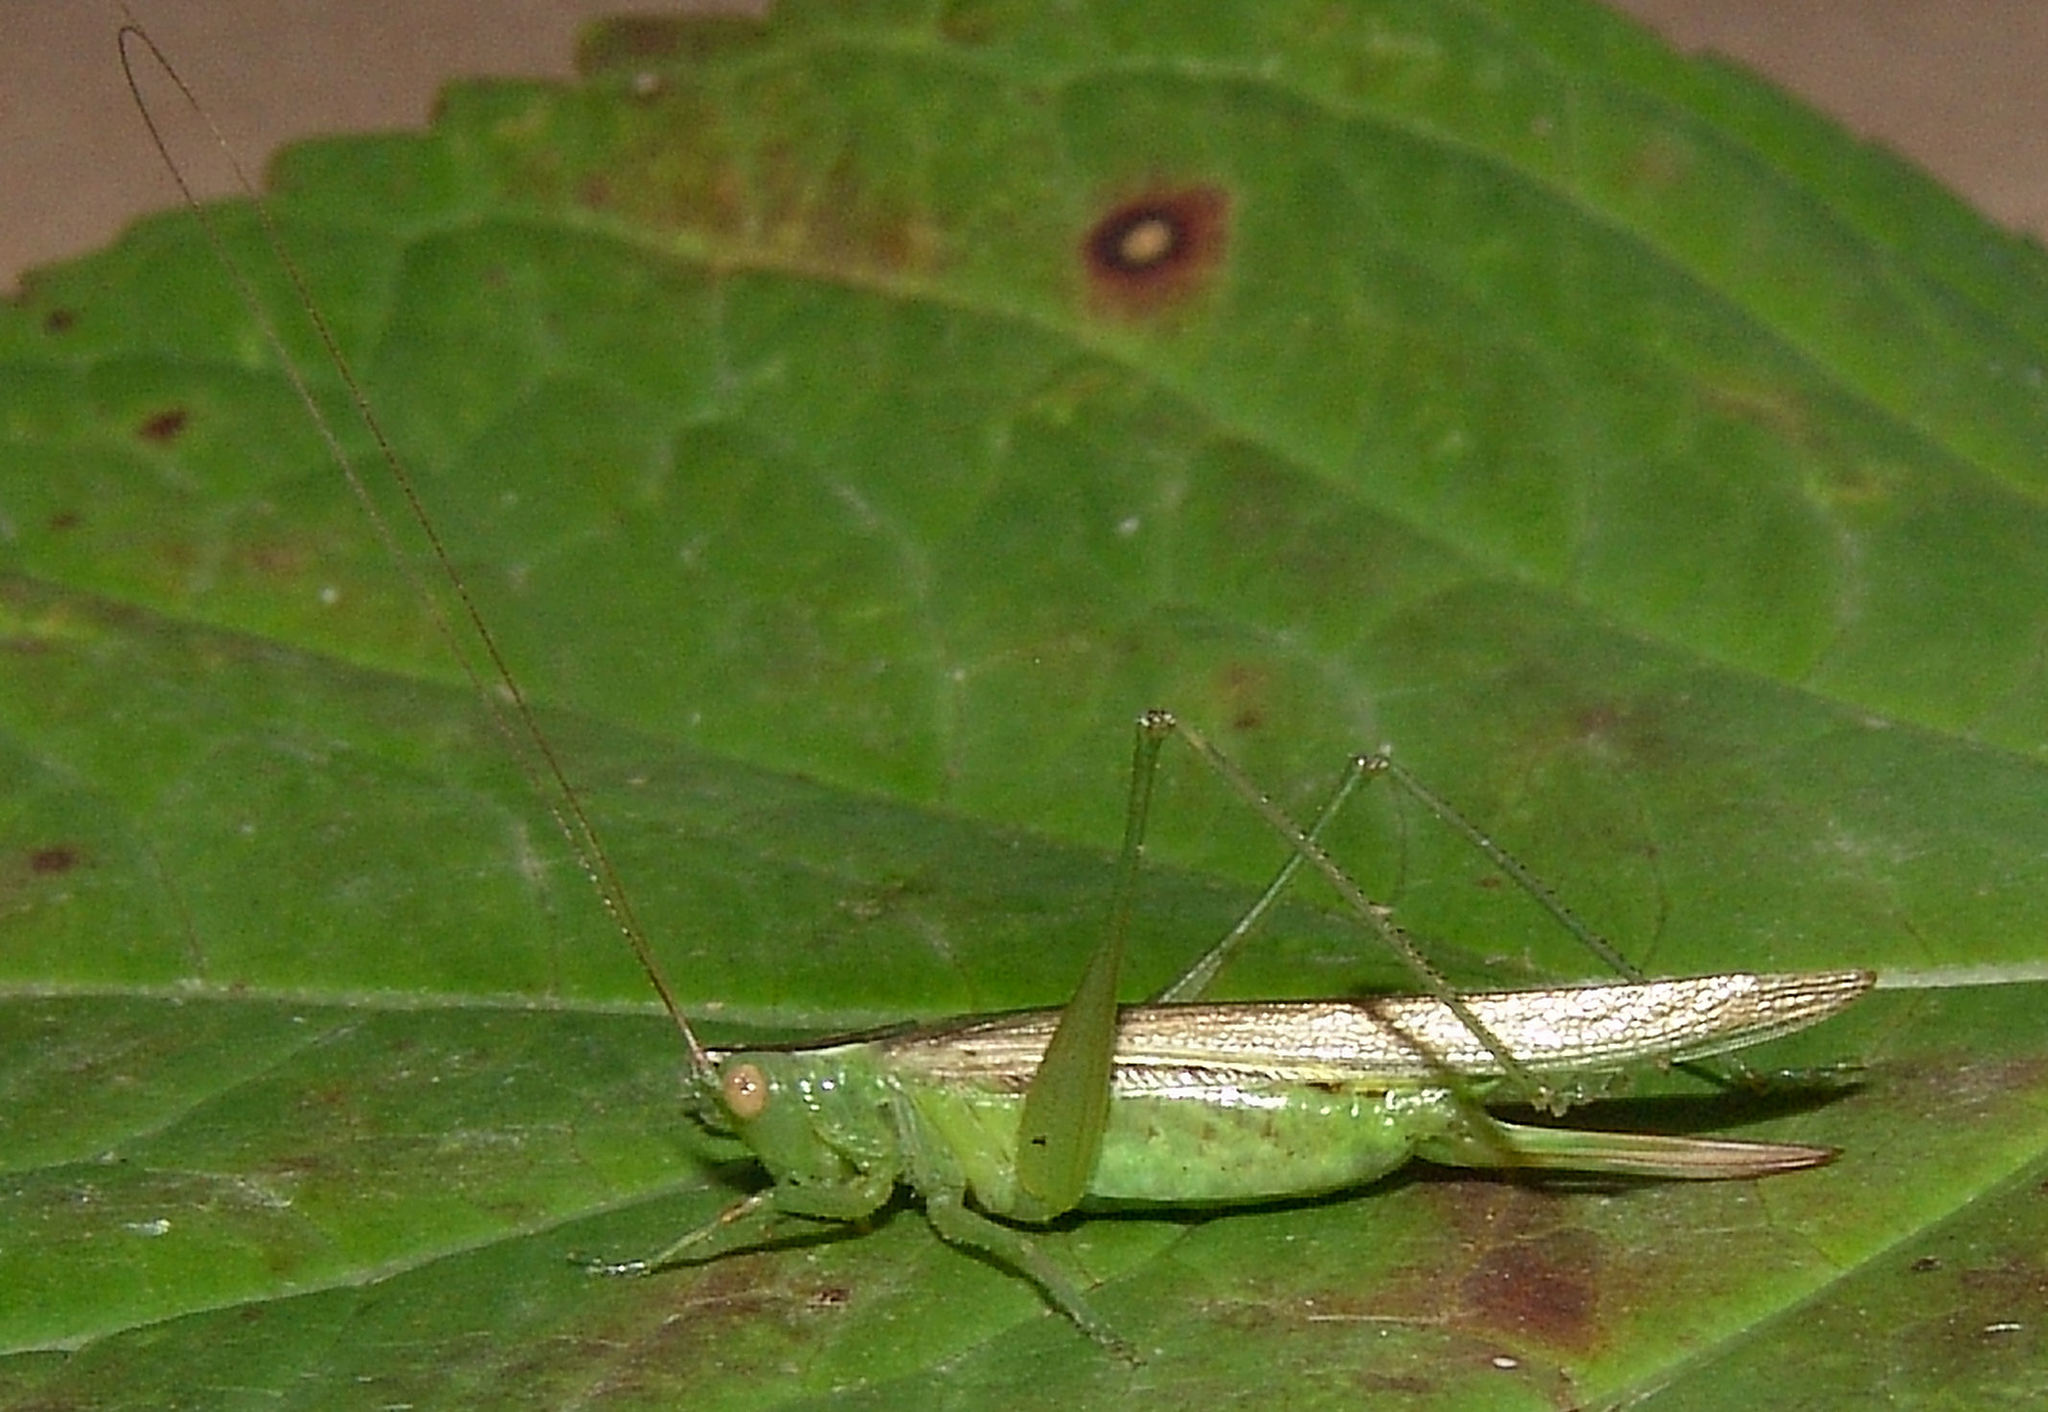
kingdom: Animalia
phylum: Arthropoda
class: Insecta
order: Orthoptera
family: Tettigoniidae
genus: Conocephalus
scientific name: Conocephalus fasciatus
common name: Slender meadow katydid
